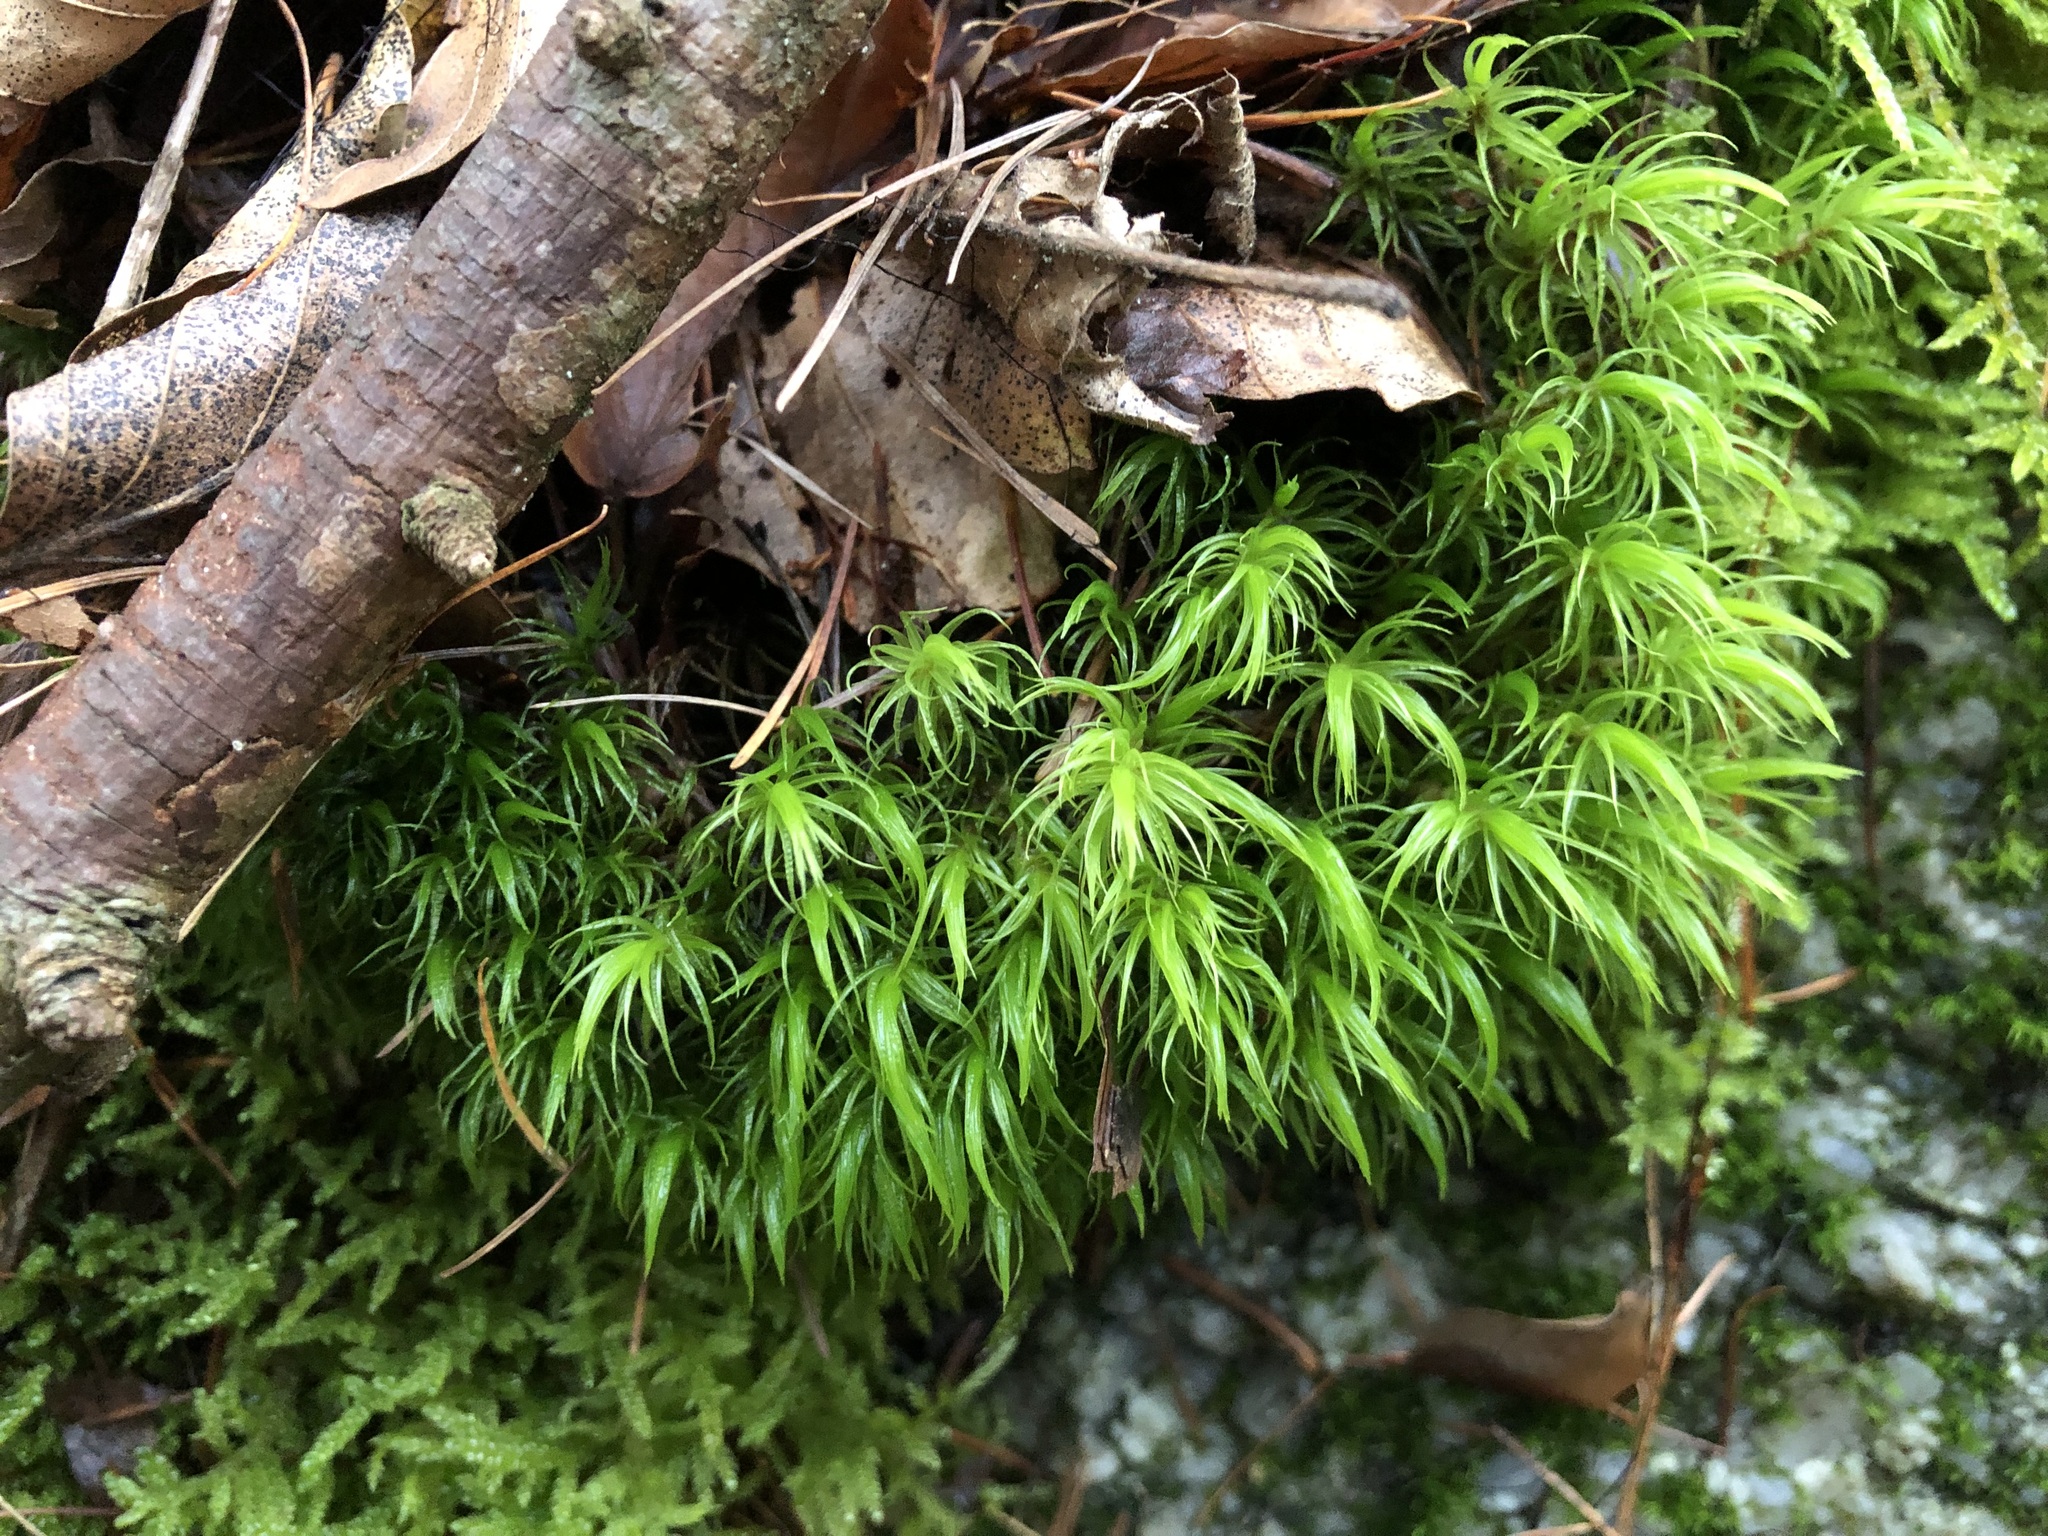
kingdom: Plantae
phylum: Bryophyta
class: Bryopsida
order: Dicranales
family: Dicranaceae
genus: Dicranum
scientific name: Dicranum scoparium
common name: Broom fork-moss
